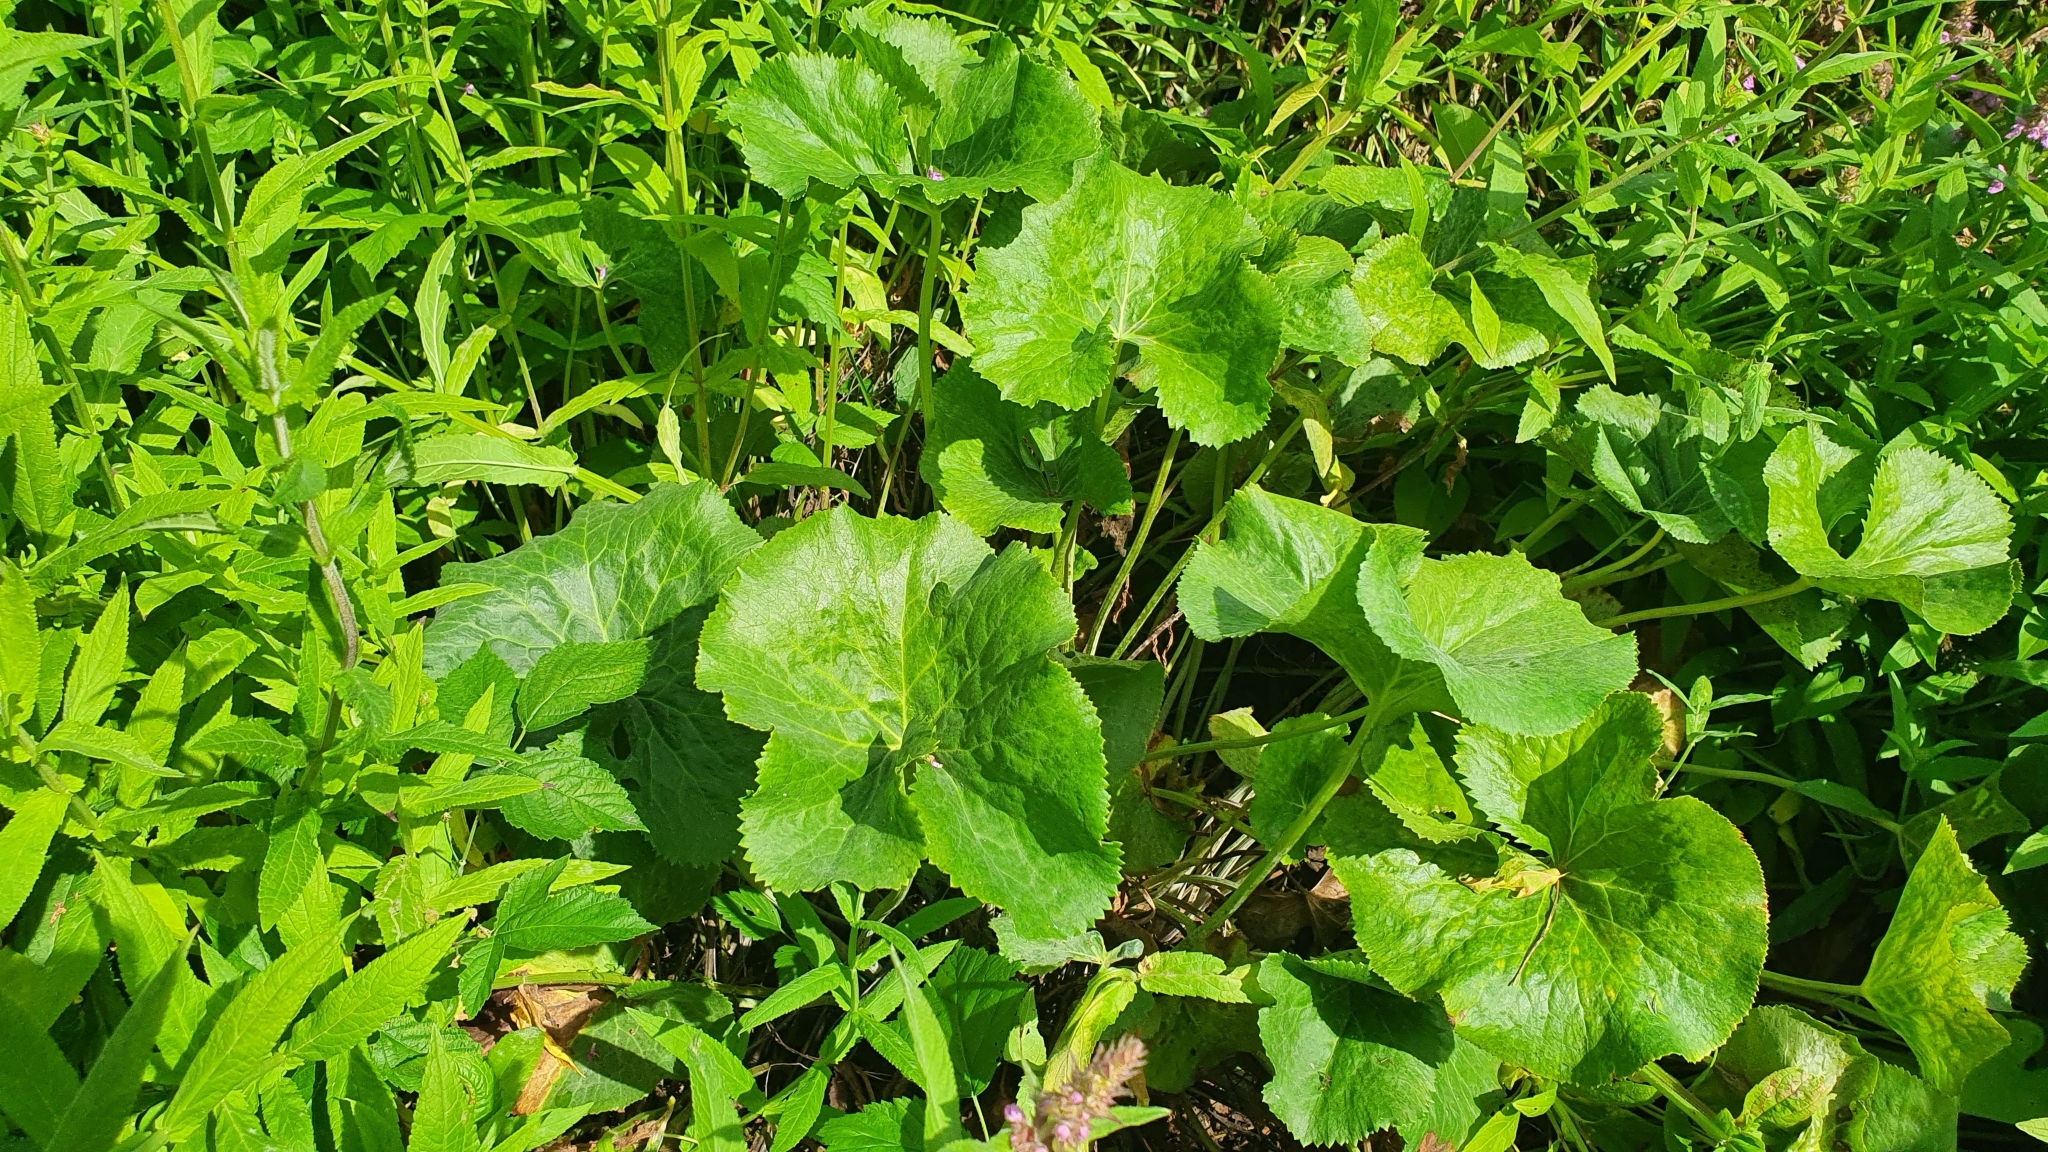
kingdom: Plantae
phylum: Tracheophyta
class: Magnoliopsida
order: Ranunculales
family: Ranunculaceae
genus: Caltha
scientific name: Caltha palustris
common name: Marsh marigold
